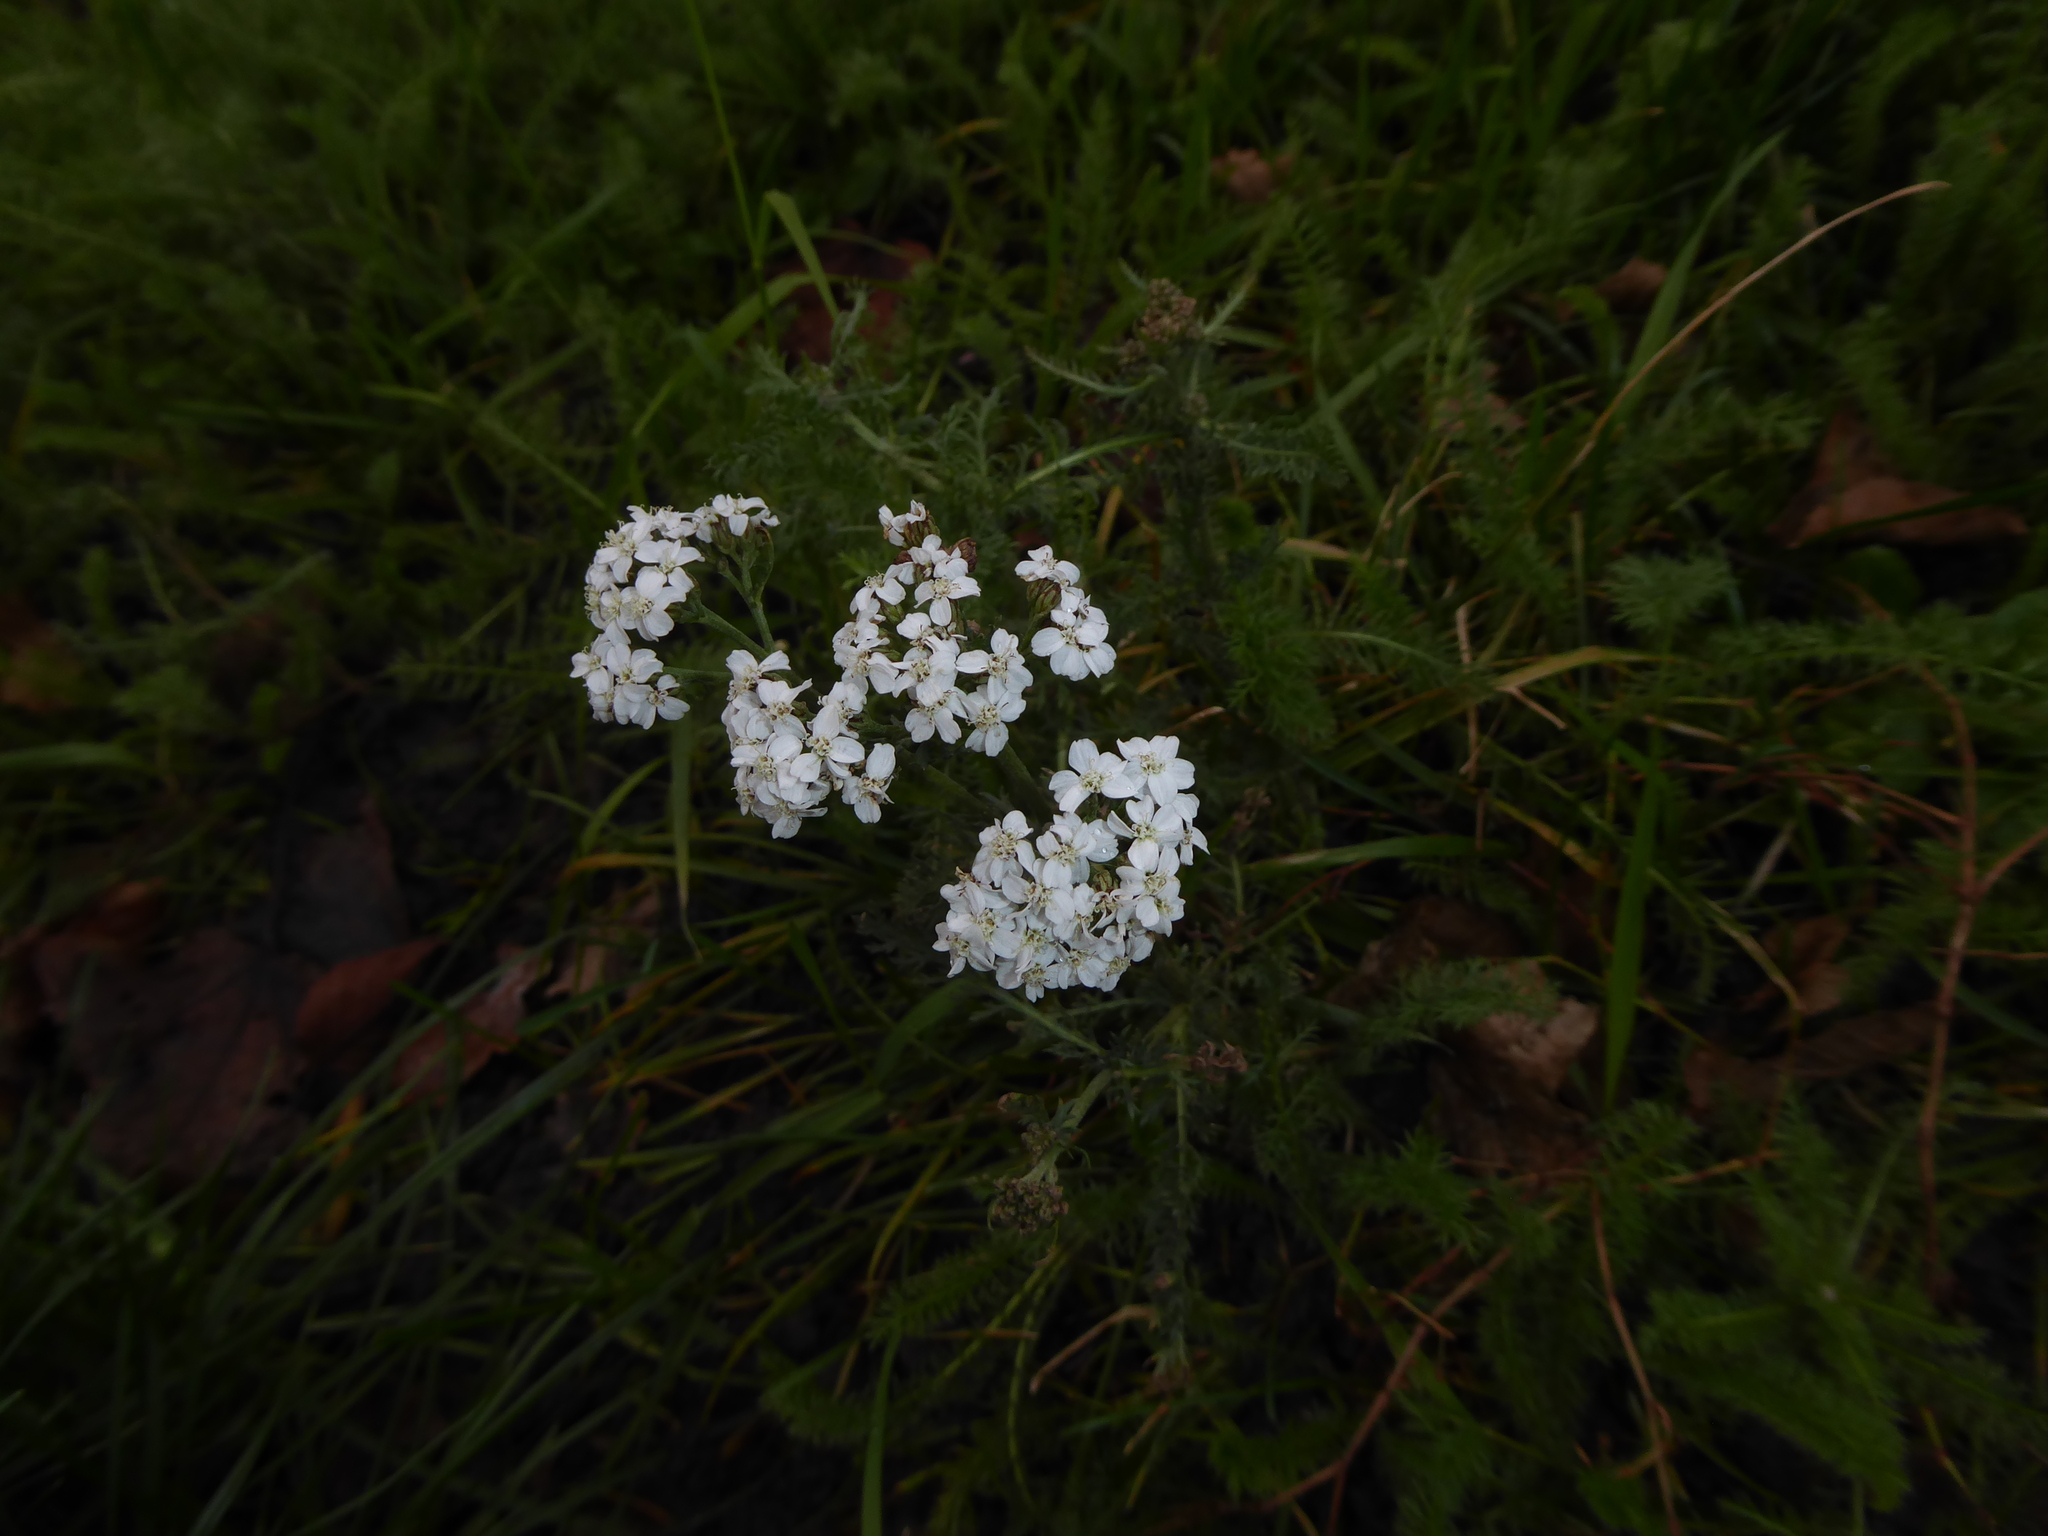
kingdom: Plantae
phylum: Tracheophyta
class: Magnoliopsida
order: Asterales
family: Asteraceae
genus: Achillea
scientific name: Achillea millefolium
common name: Yarrow
